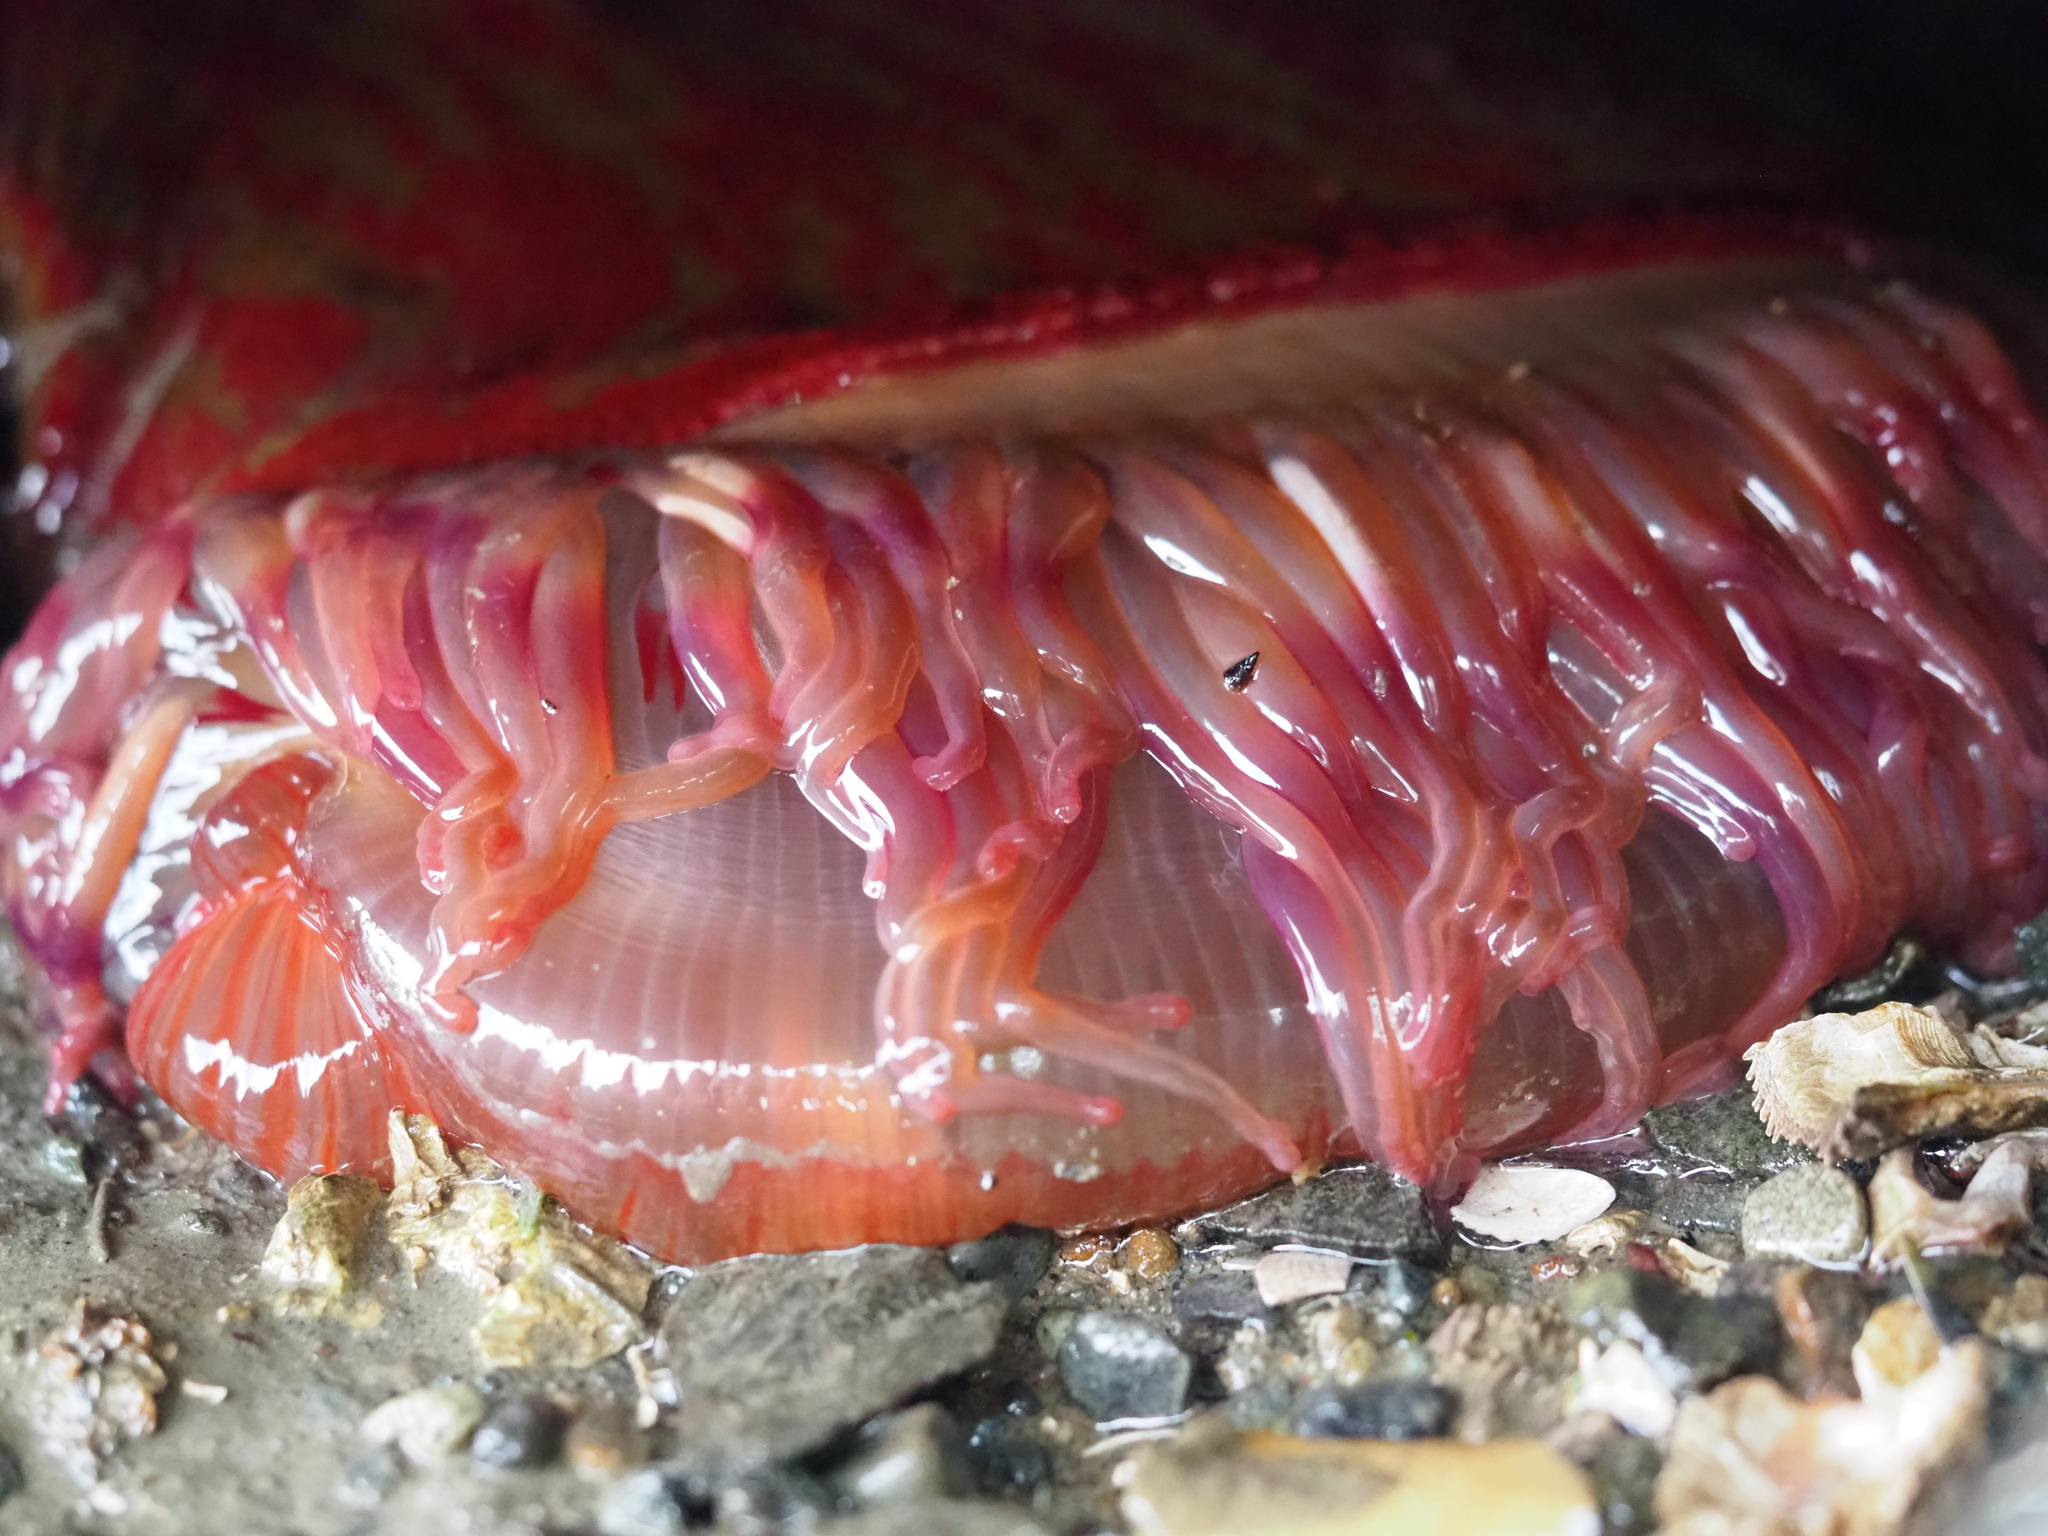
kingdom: Animalia
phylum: Cnidaria
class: Anthozoa
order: Actiniaria
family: Actiniidae
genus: Urticina
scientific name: Urticina grebelnyi
